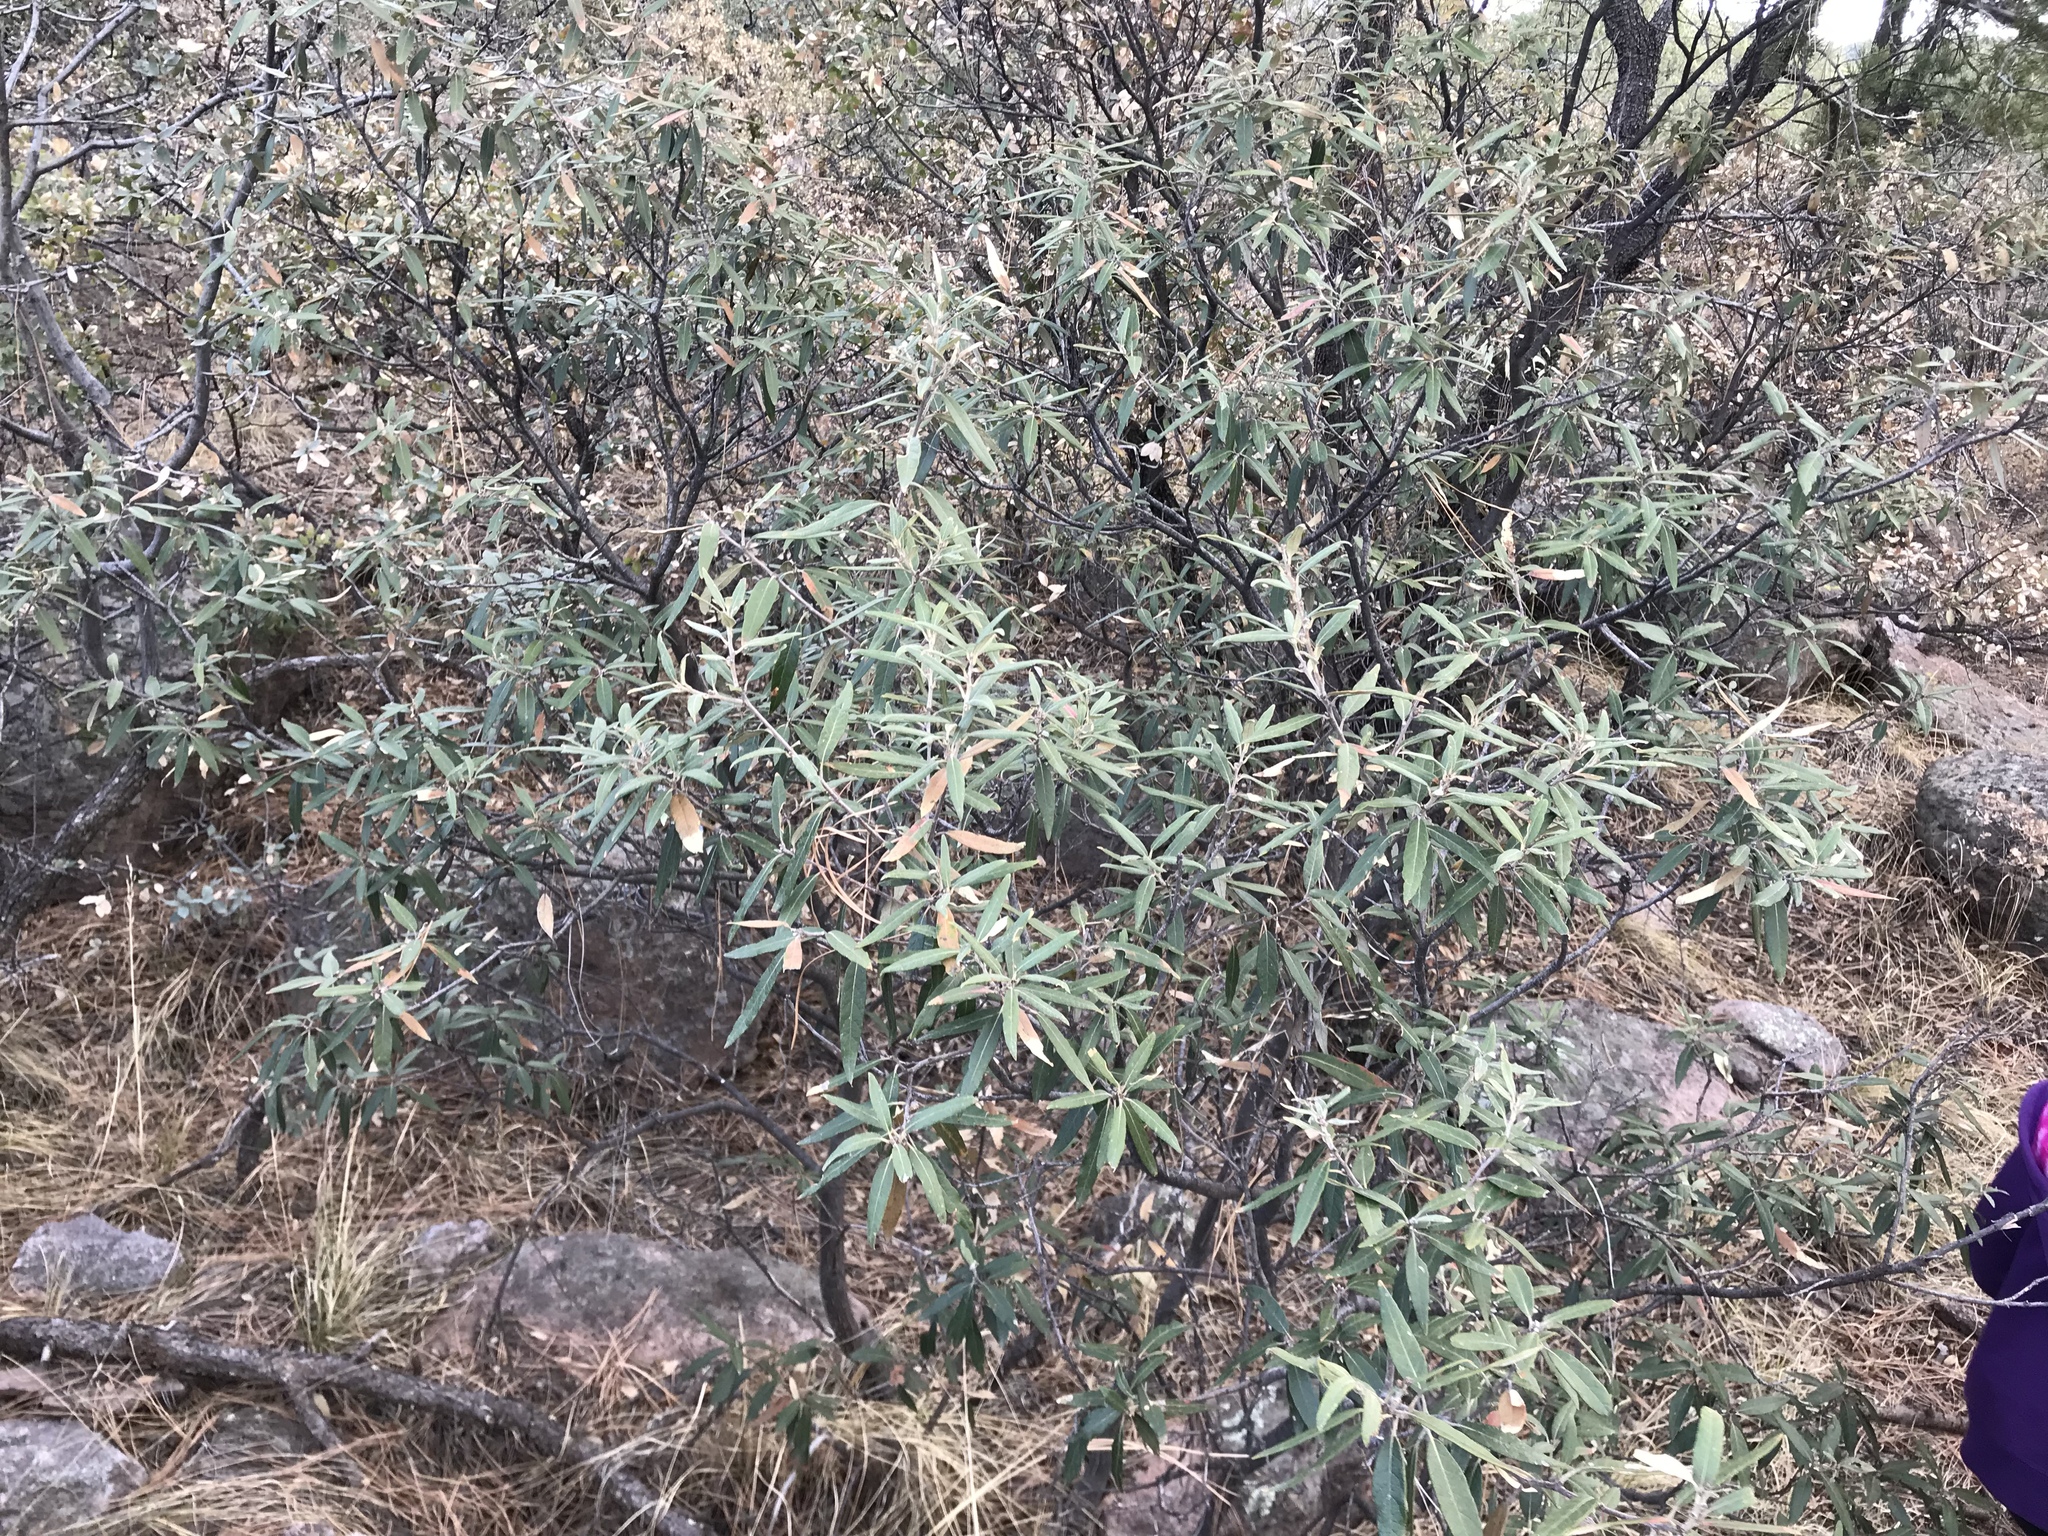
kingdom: Plantae
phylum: Tracheophyta
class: Magnoliopsida
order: Fagales
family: Fagaceae
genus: Quercus
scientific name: Quercus hypoleucoides
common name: Silverleaf oak
